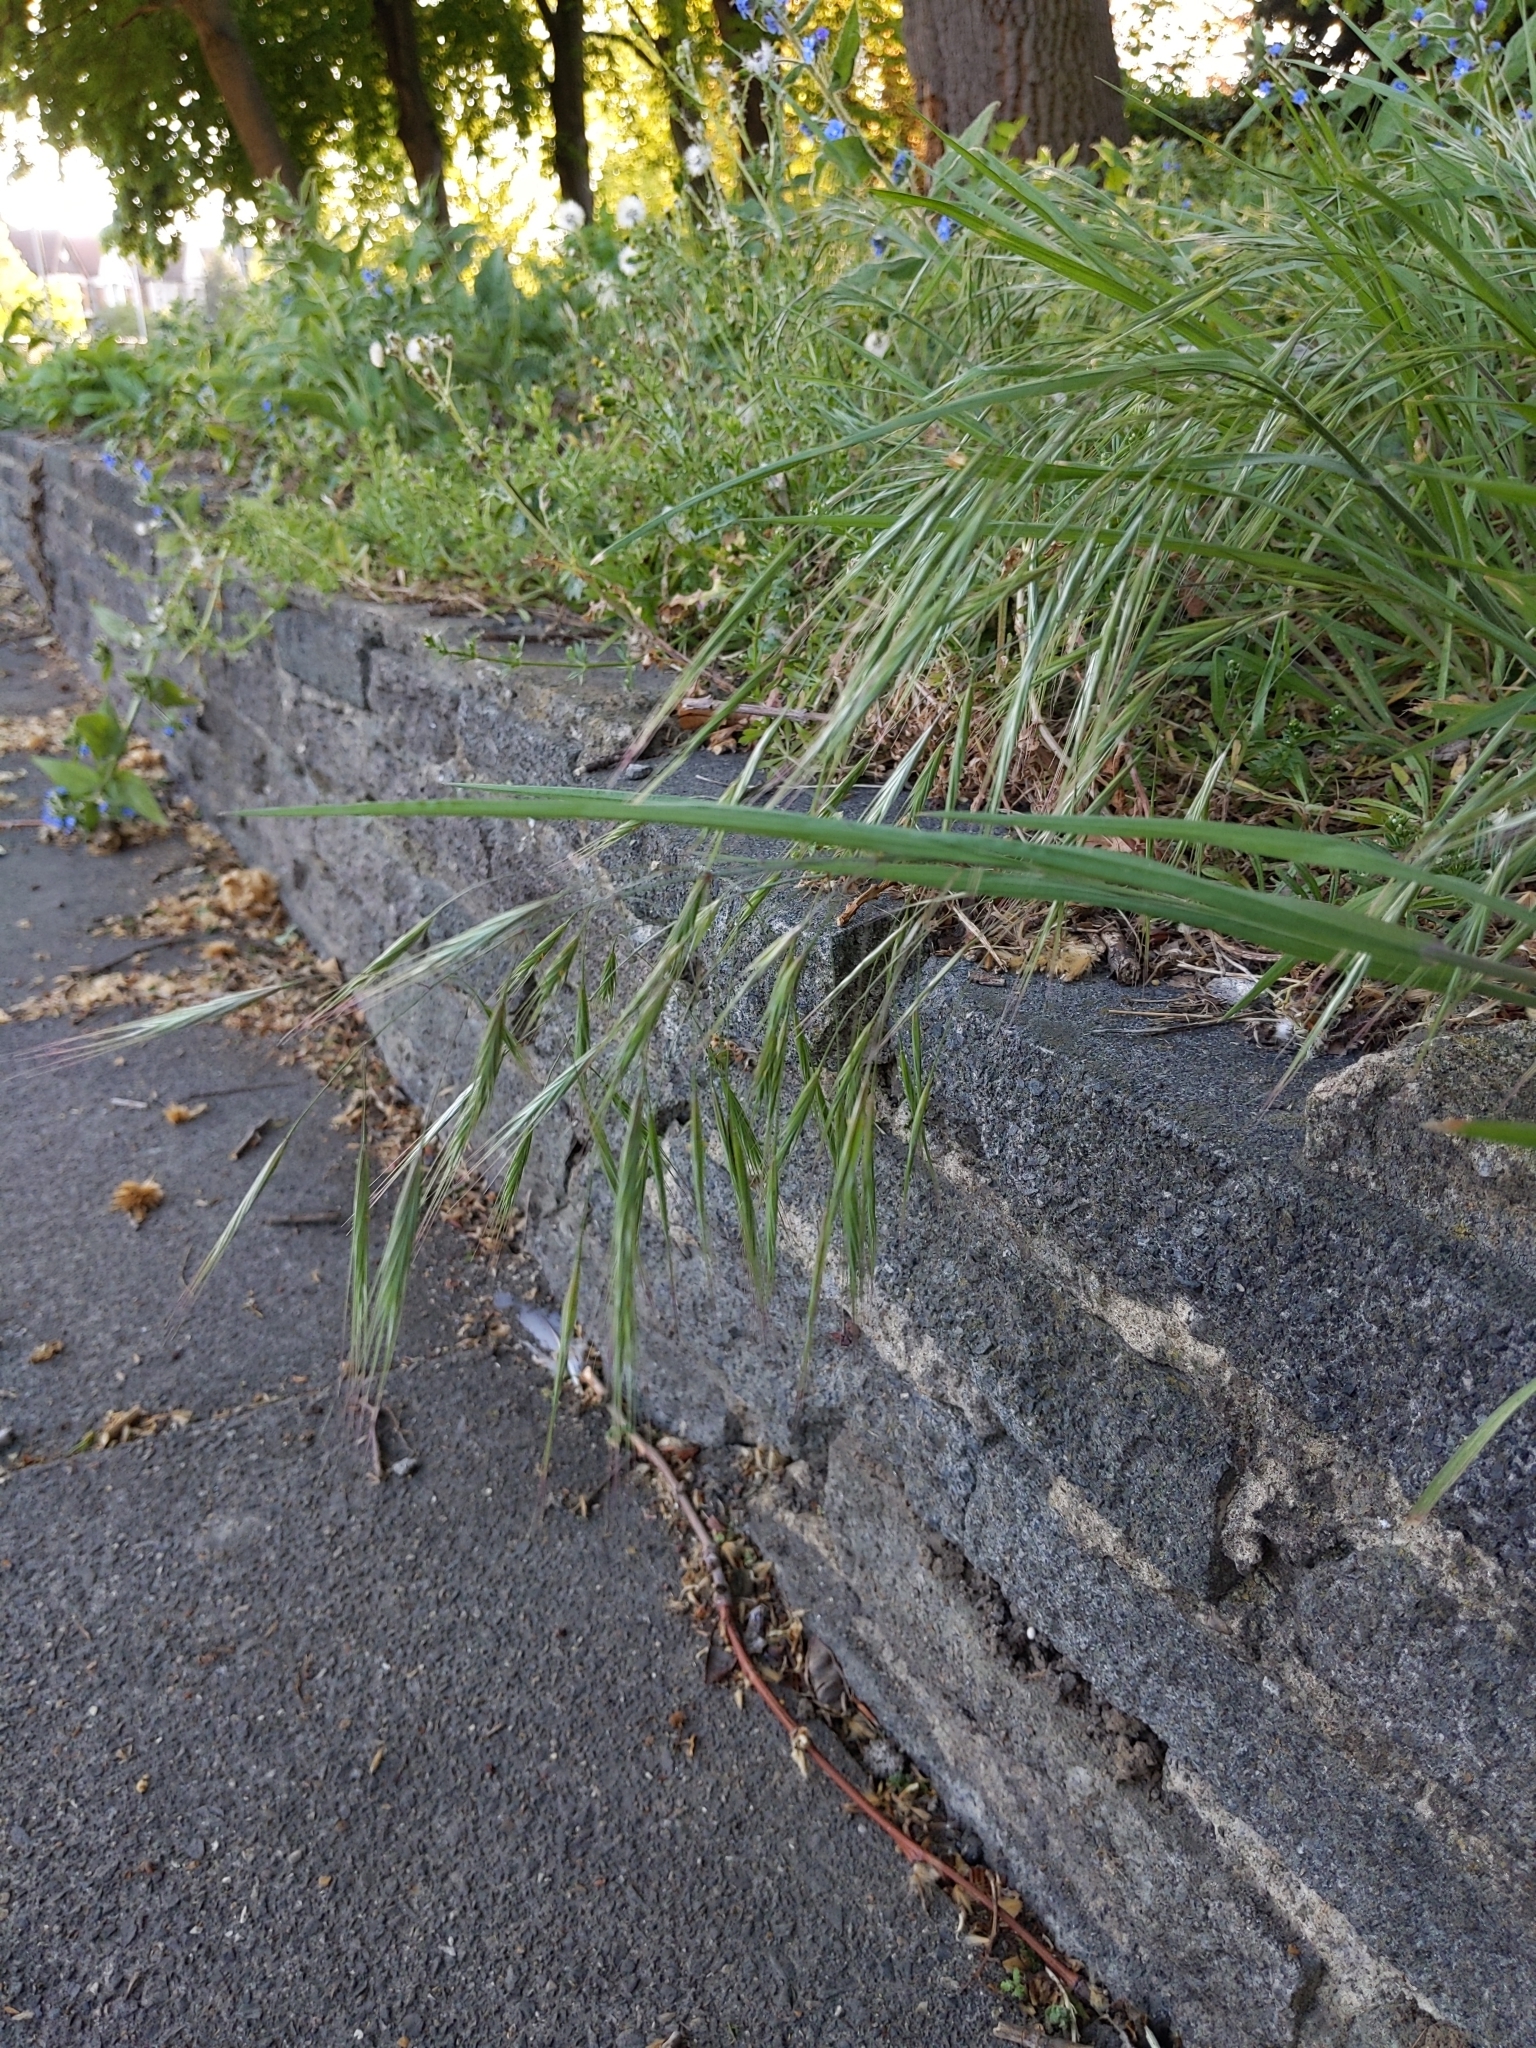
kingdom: Plantae
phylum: Tracheophyta
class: Liliopsida
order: Poales
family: Poaceae
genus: Bromus
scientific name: Bromus sterilis
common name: Poverty brome
